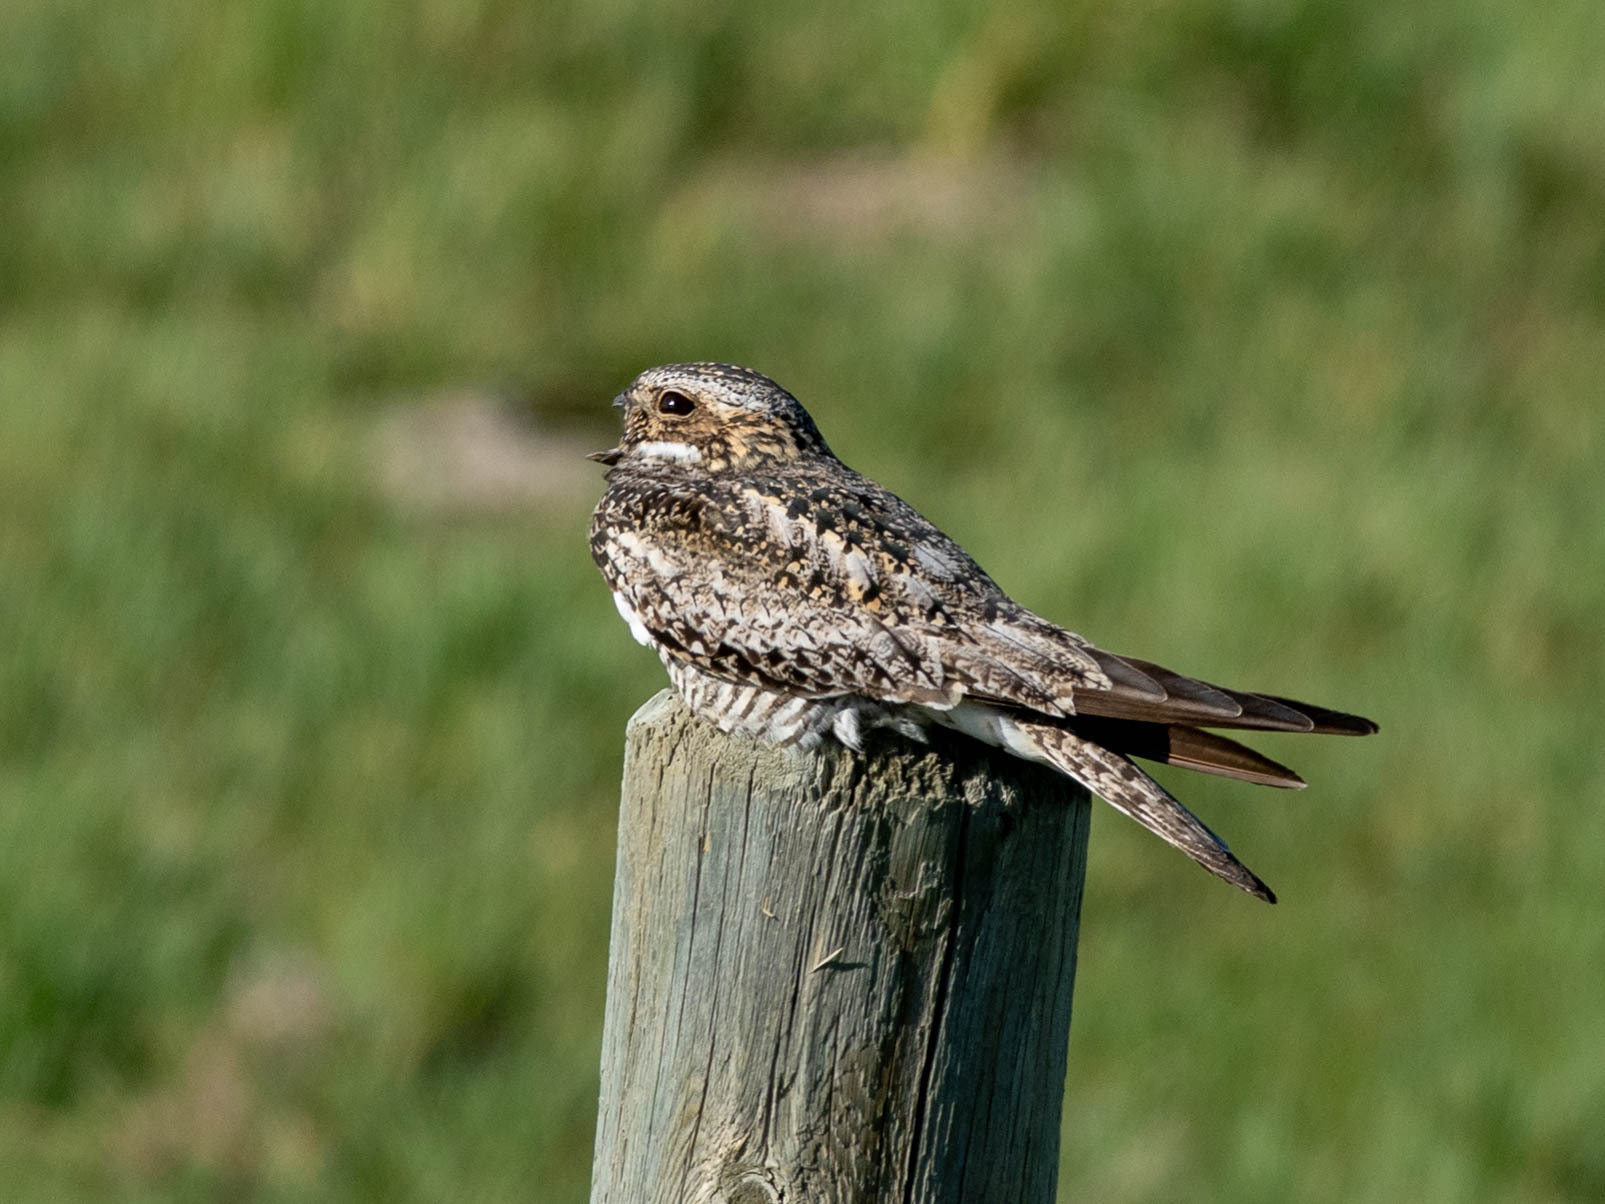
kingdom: Animalia
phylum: Chordata
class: Aves
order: Caprimulgiformes
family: Caprimulgidae
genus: Chordeiles
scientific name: Chordeiles minor
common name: Common nighthawk
